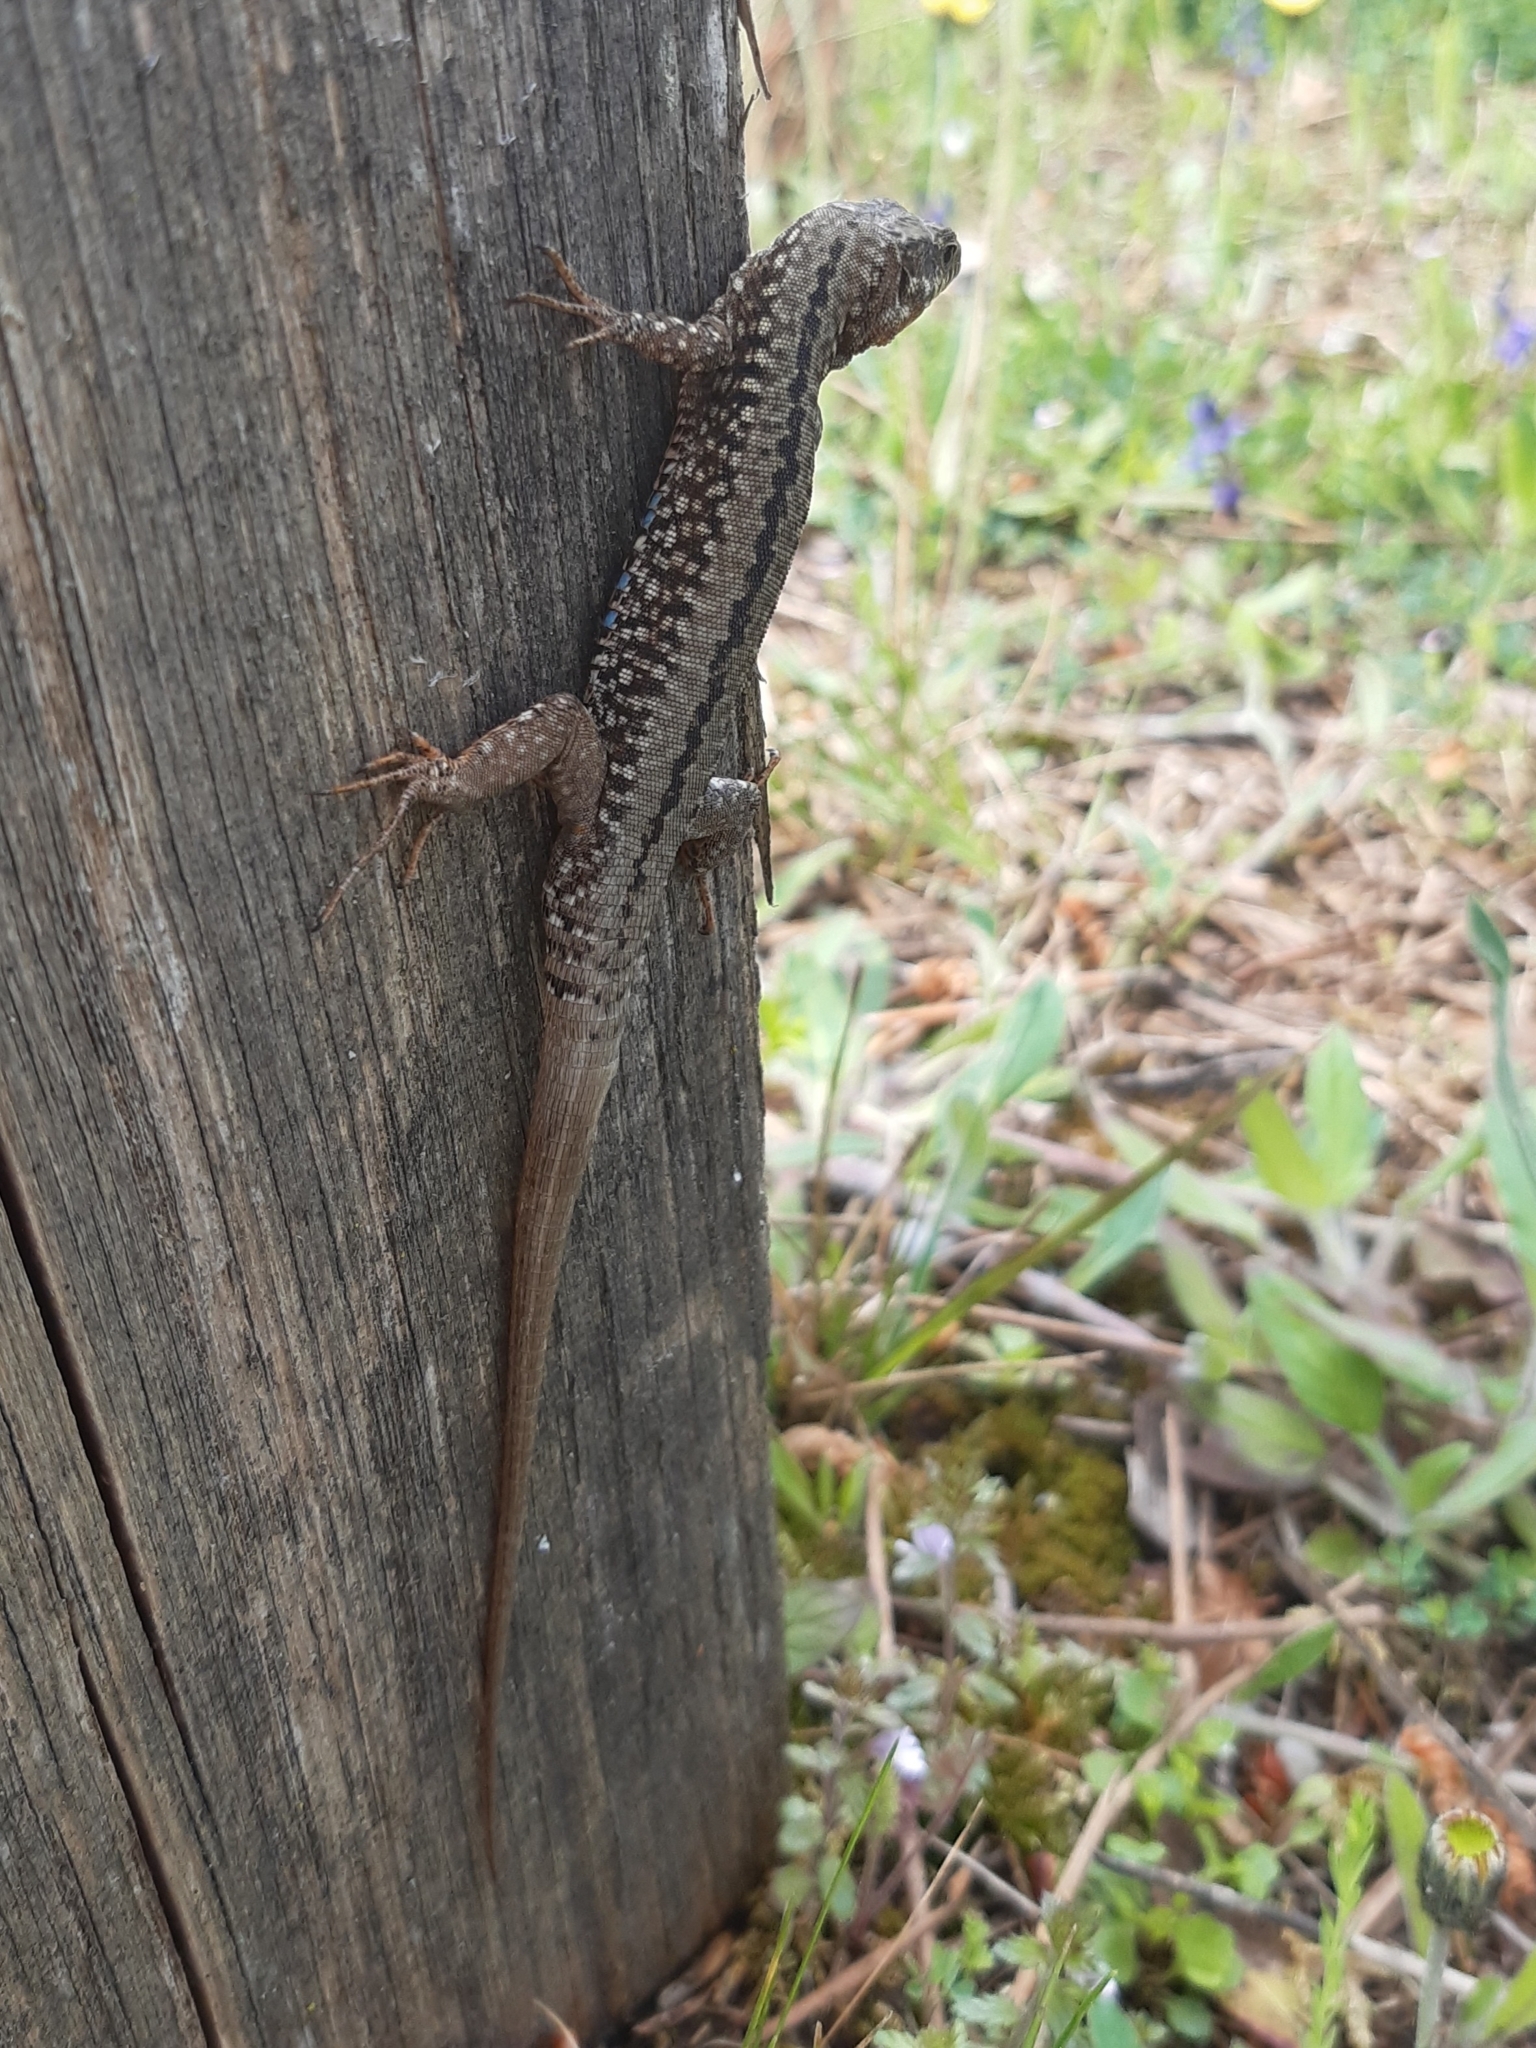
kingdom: Animalia
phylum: Chordata
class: Squamata
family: Lacertidae
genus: Podarcis
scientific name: Podarcis muralis
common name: Common wall lizard
